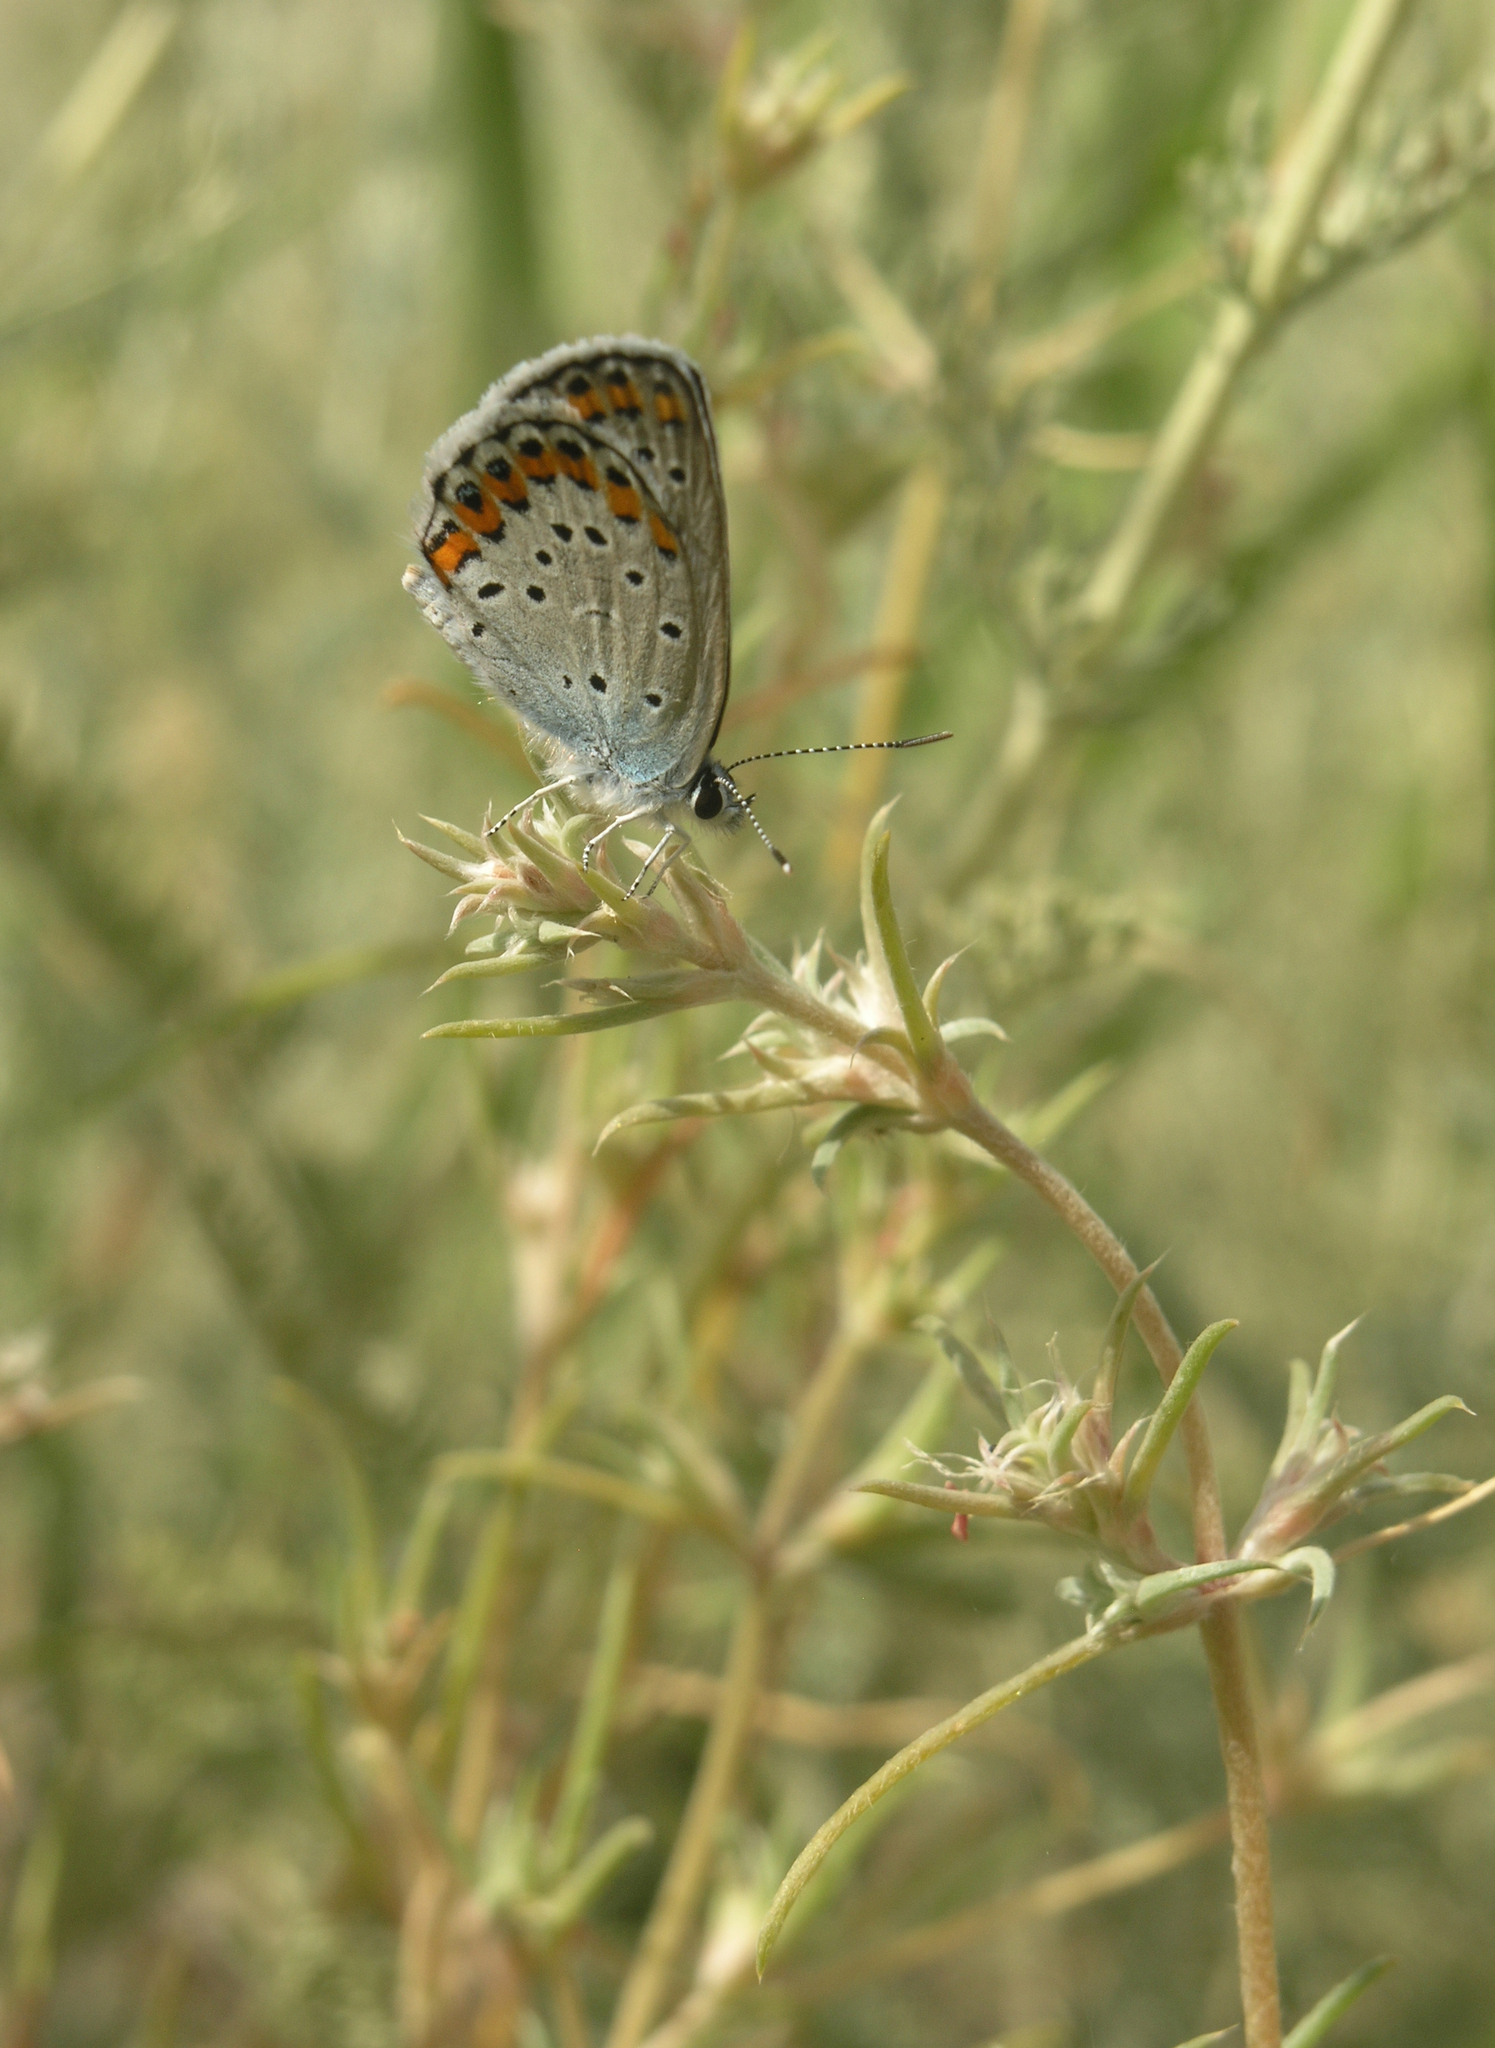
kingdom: Plantae
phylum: Tracheophyta
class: Magnoliopsida
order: Caryophyllales
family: Amaranthaceae
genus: Pyankovia
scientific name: Pyankovia brachiata
